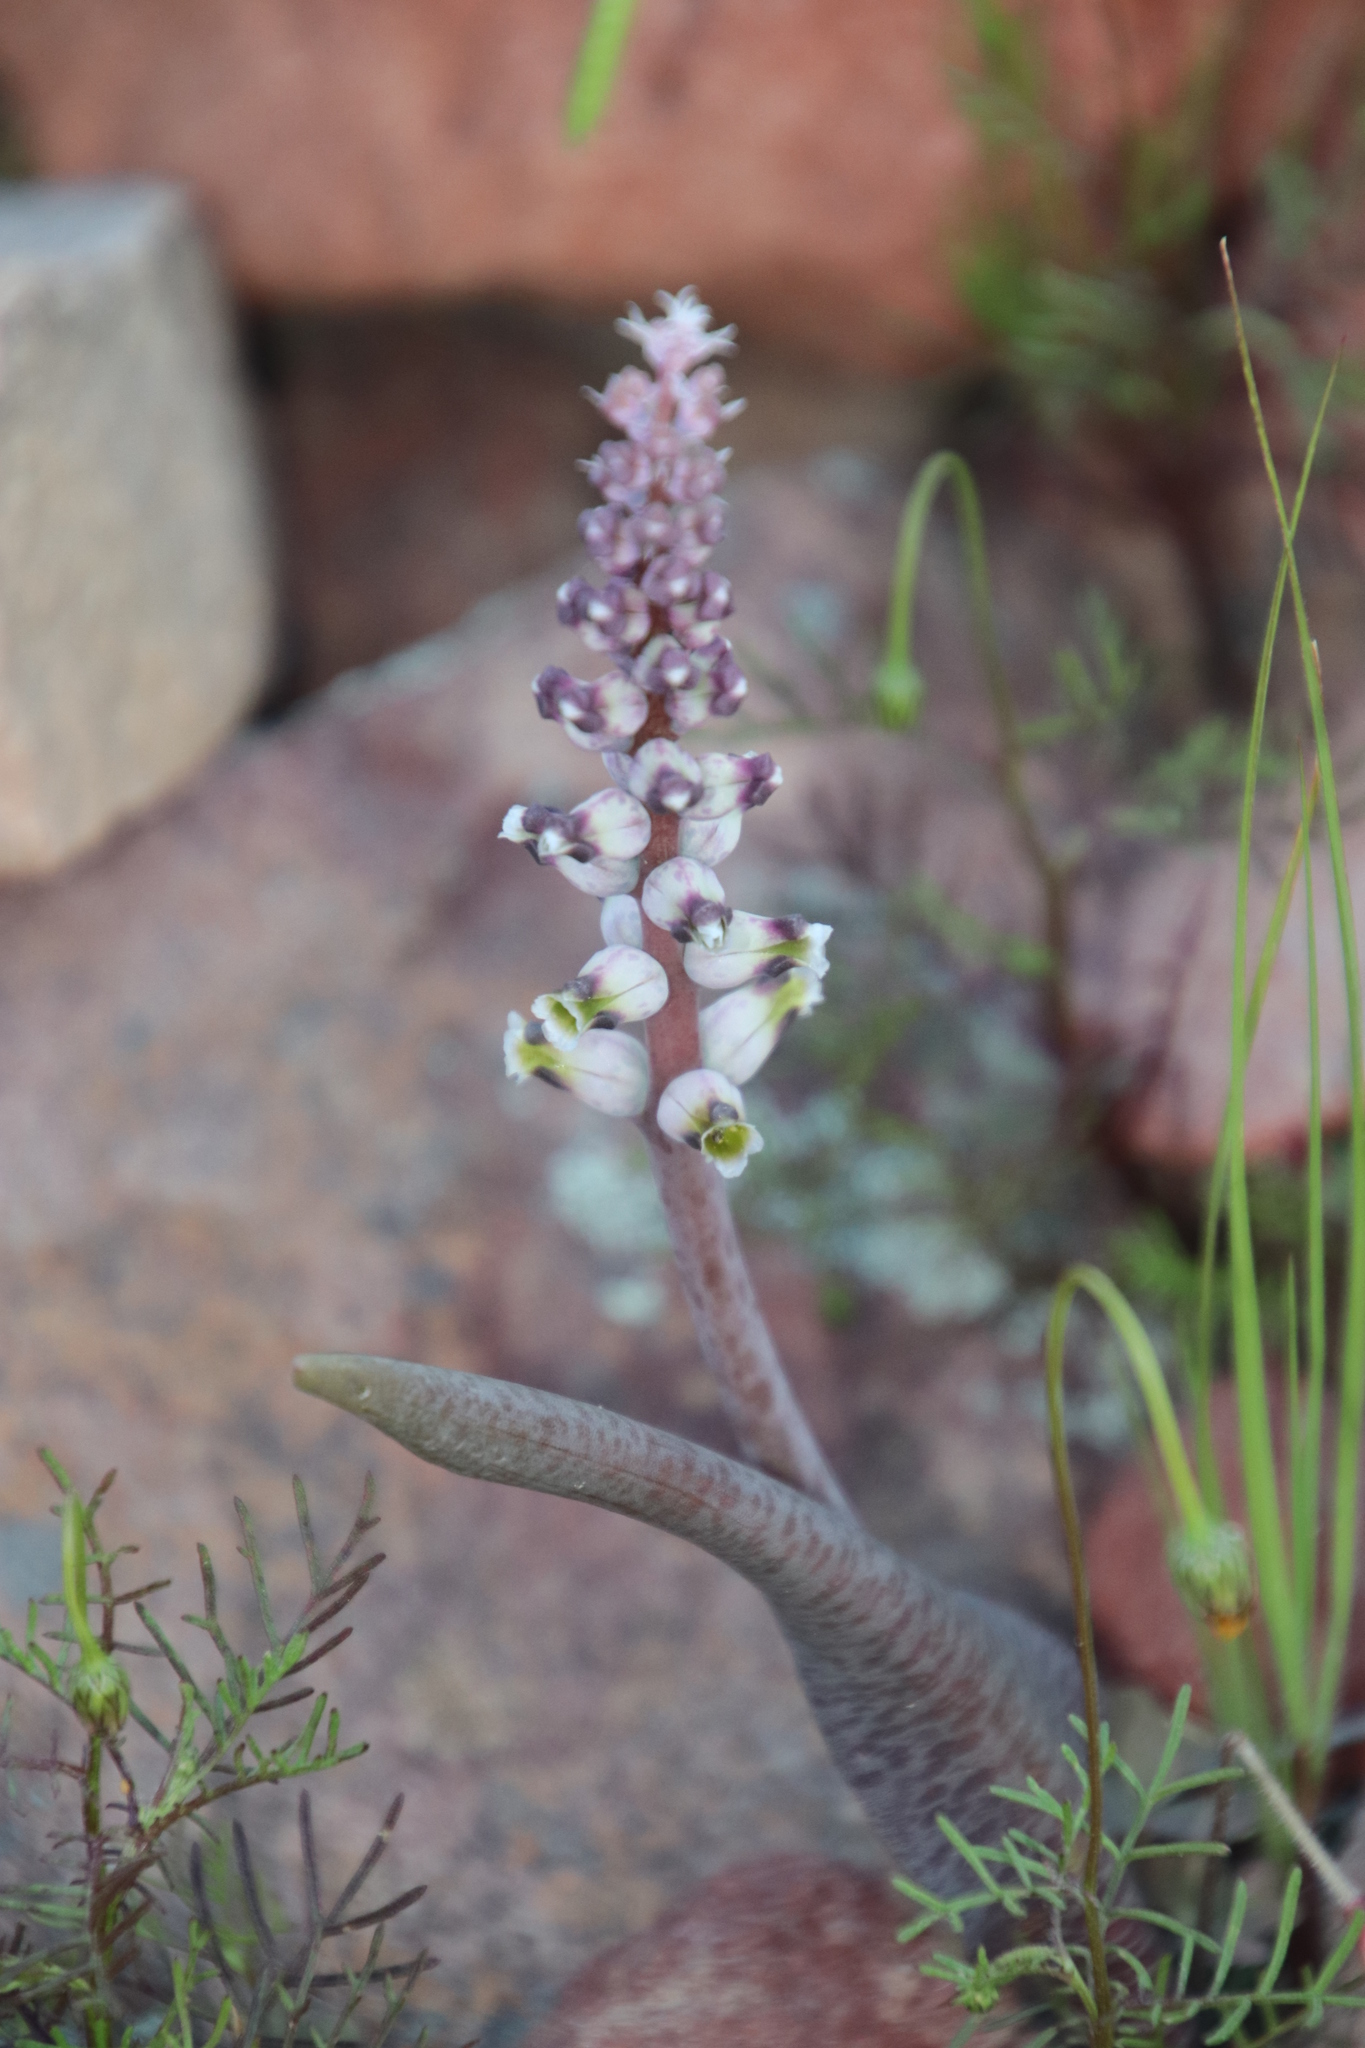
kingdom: Plantae
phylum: Tracheophyta
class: Liliopsida
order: Asparagales
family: Asparagaceae
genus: Lachenalia
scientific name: Lachenalia membranacea
